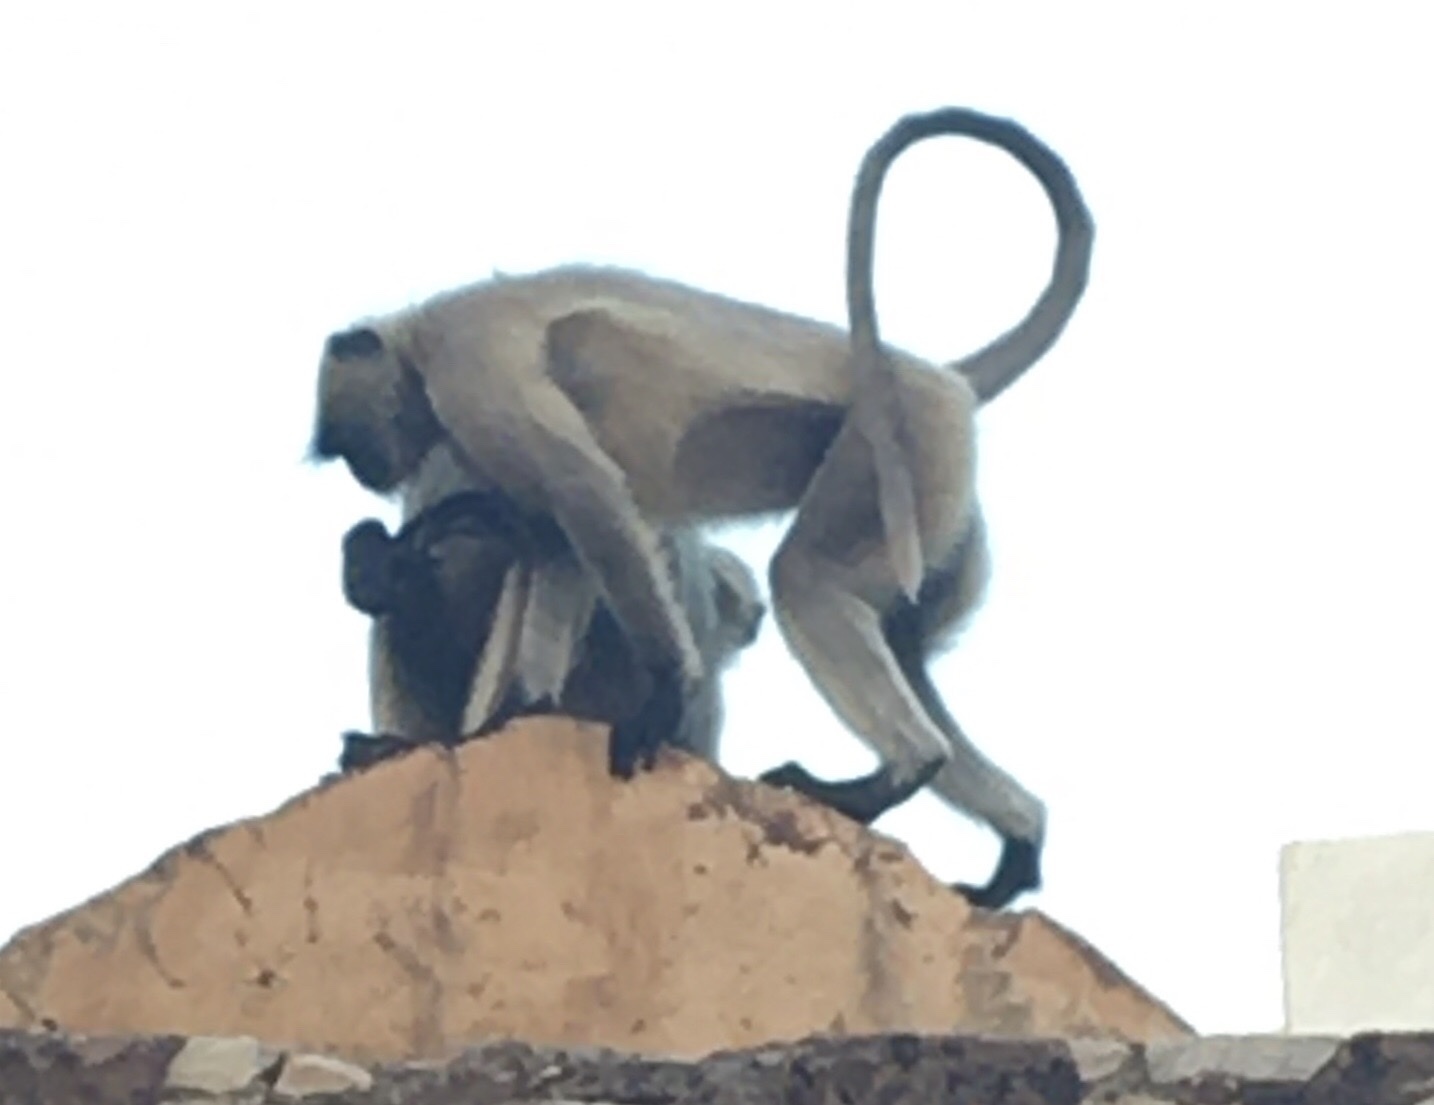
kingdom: Animalia
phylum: Chordata
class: Mammalia
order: Primates
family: Cercopithecidae
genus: Semnopithecus
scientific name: Semnopithecus entellus
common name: Northern plains gray langur
